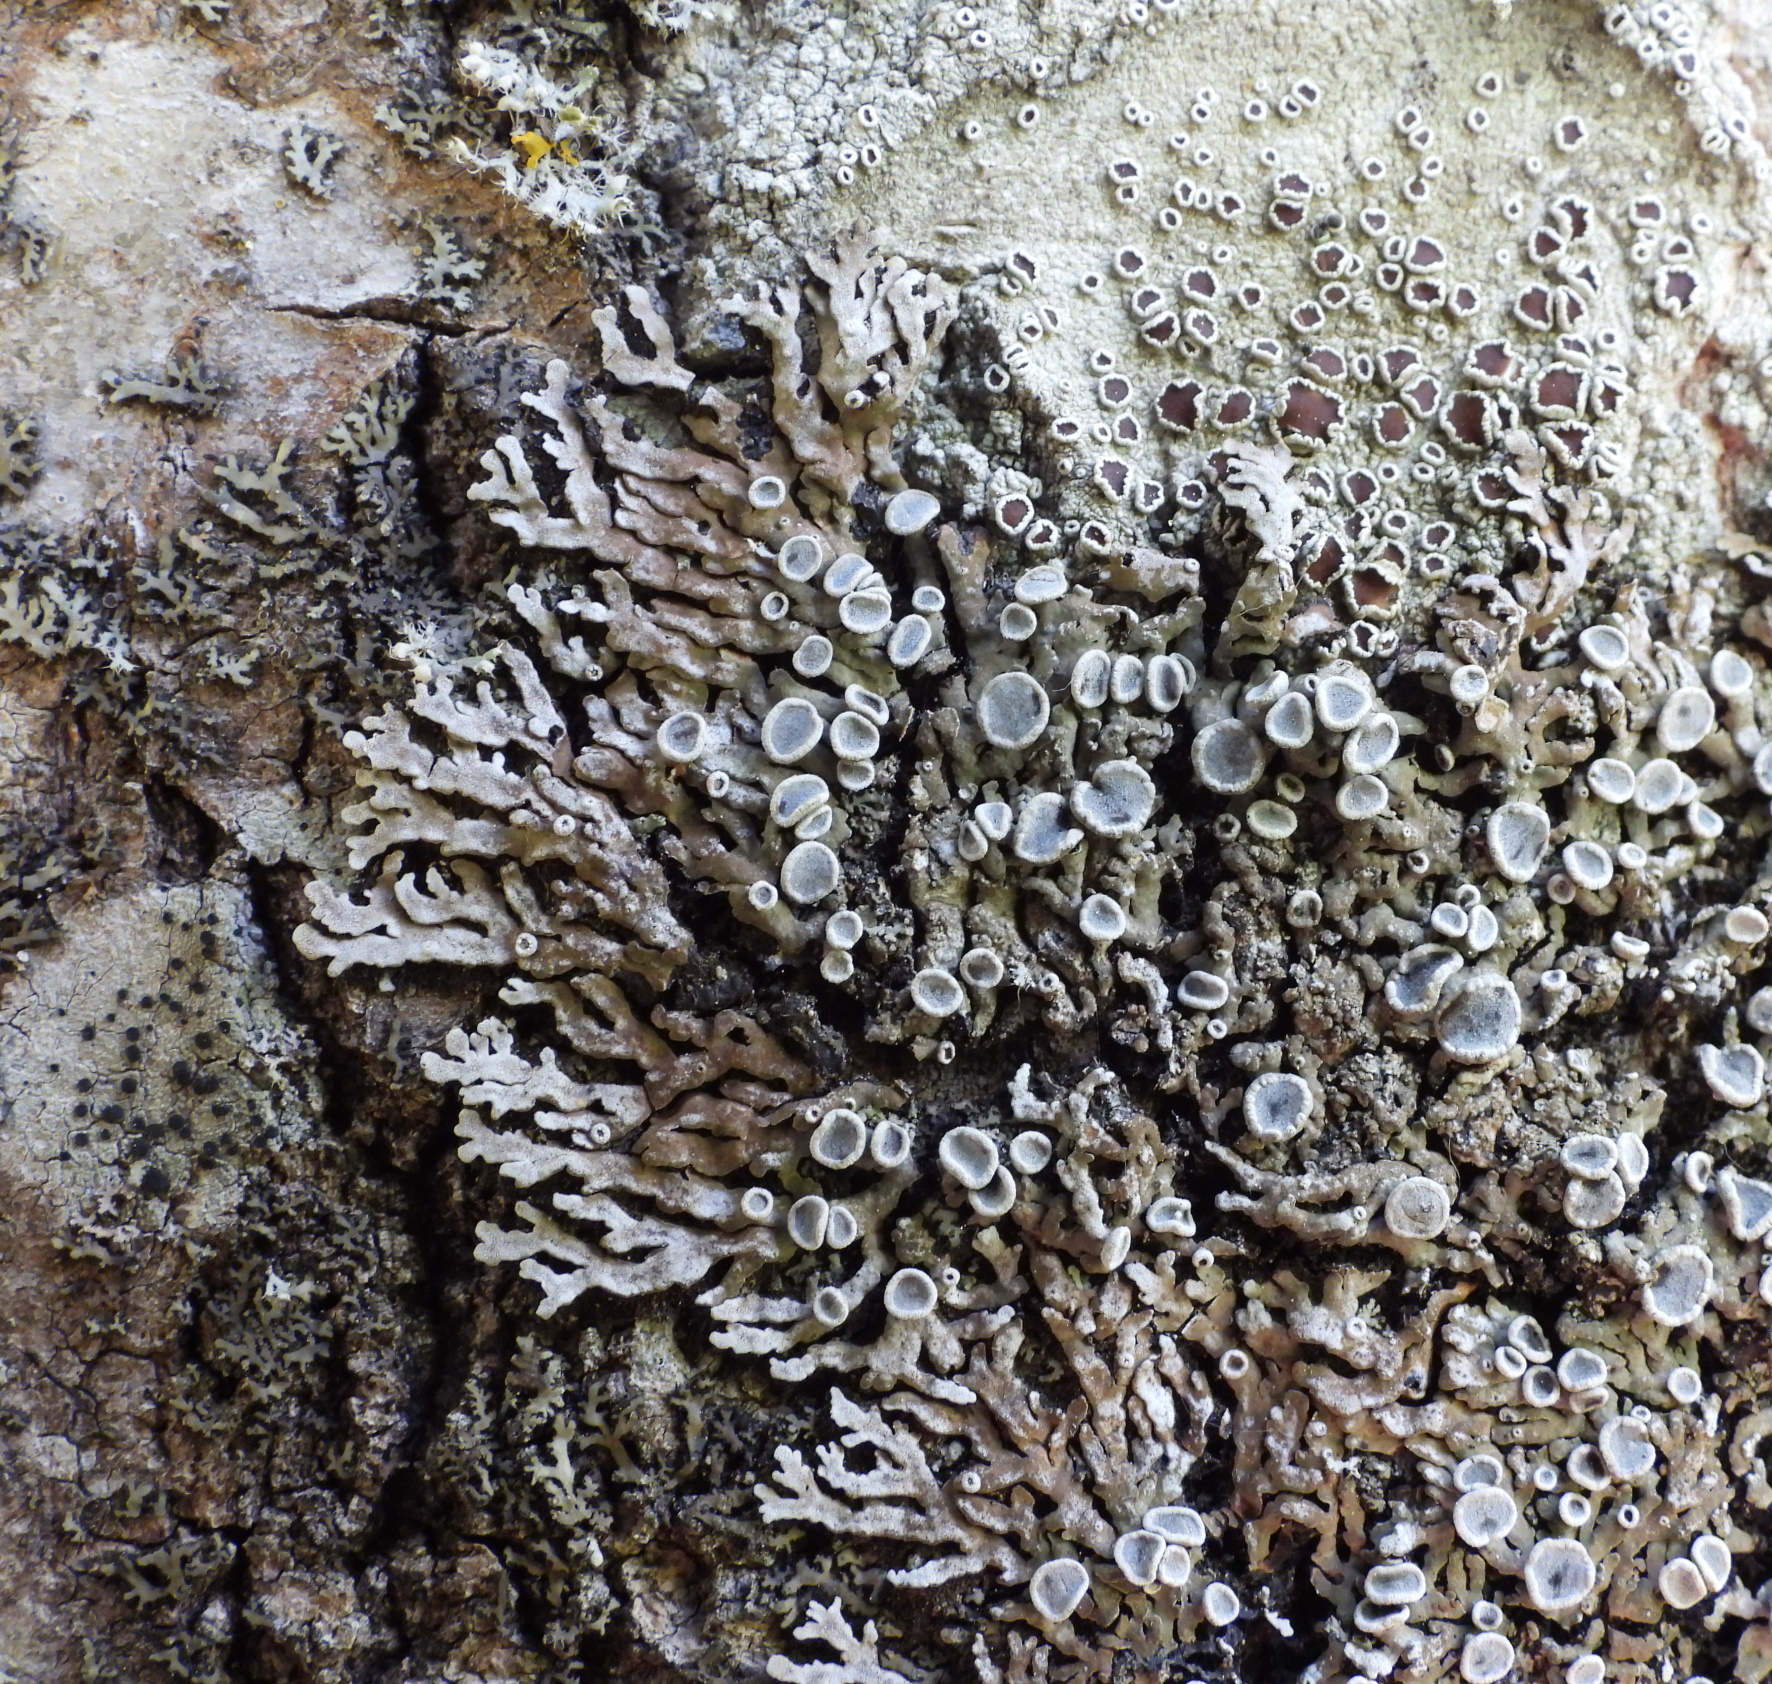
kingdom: Fungi
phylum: Ascomycota
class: Lecanoromycetes
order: Caliciales
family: Physciaceae
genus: Physconia
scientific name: Physconia distorta
